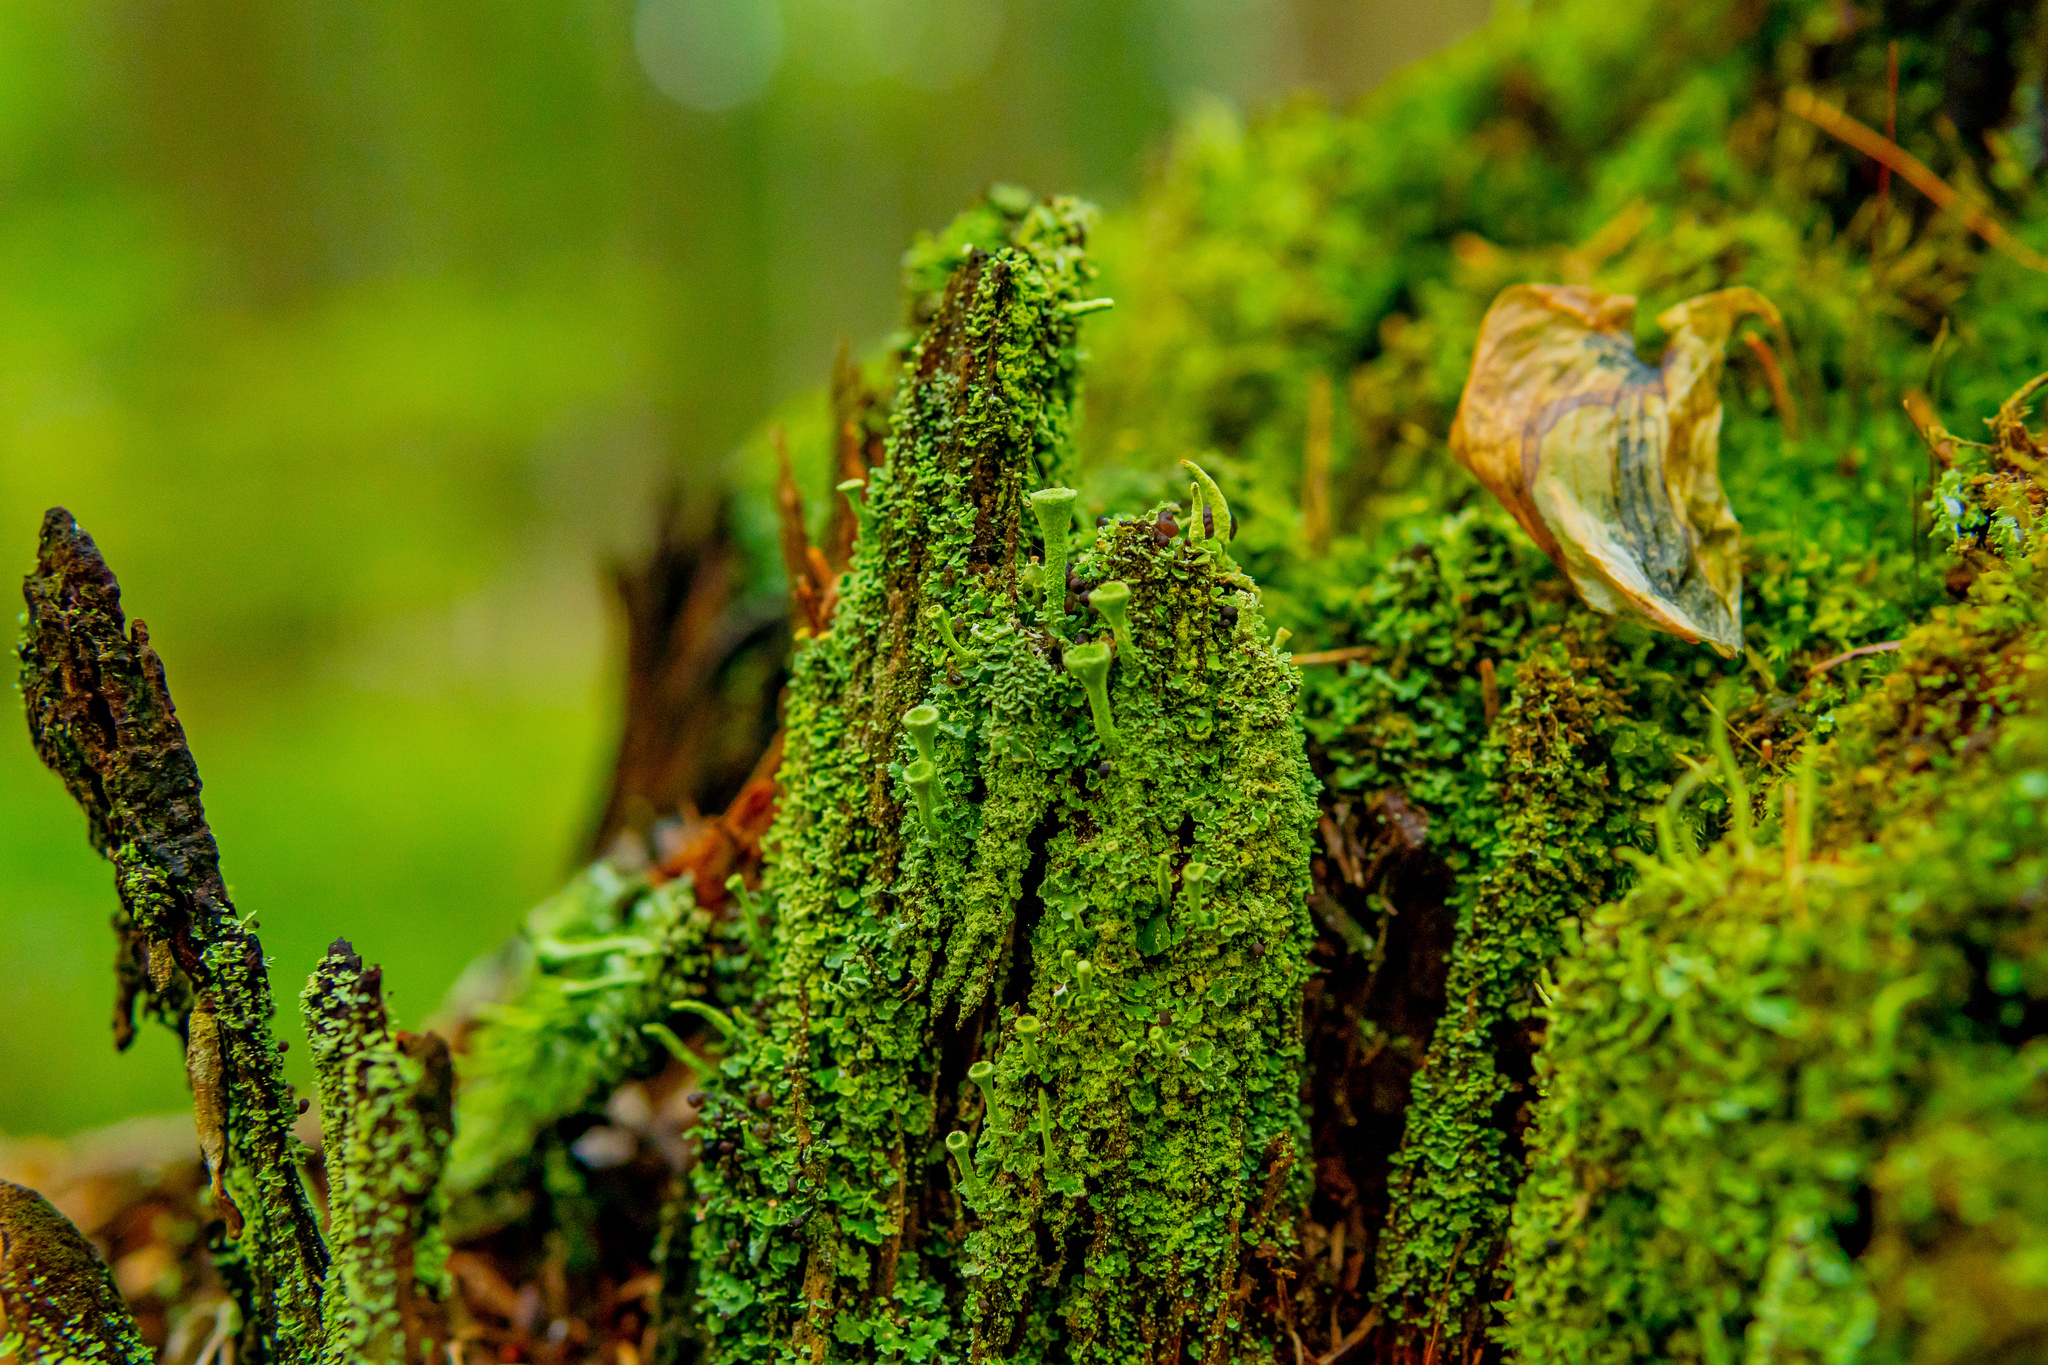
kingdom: Fungi
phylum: Ascomycota
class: Lecanoromycetes
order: Lecanorales
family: Cladoniaceae
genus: Cladonia
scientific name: Cladonia fimbriata
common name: Powdered trumpet lichen
